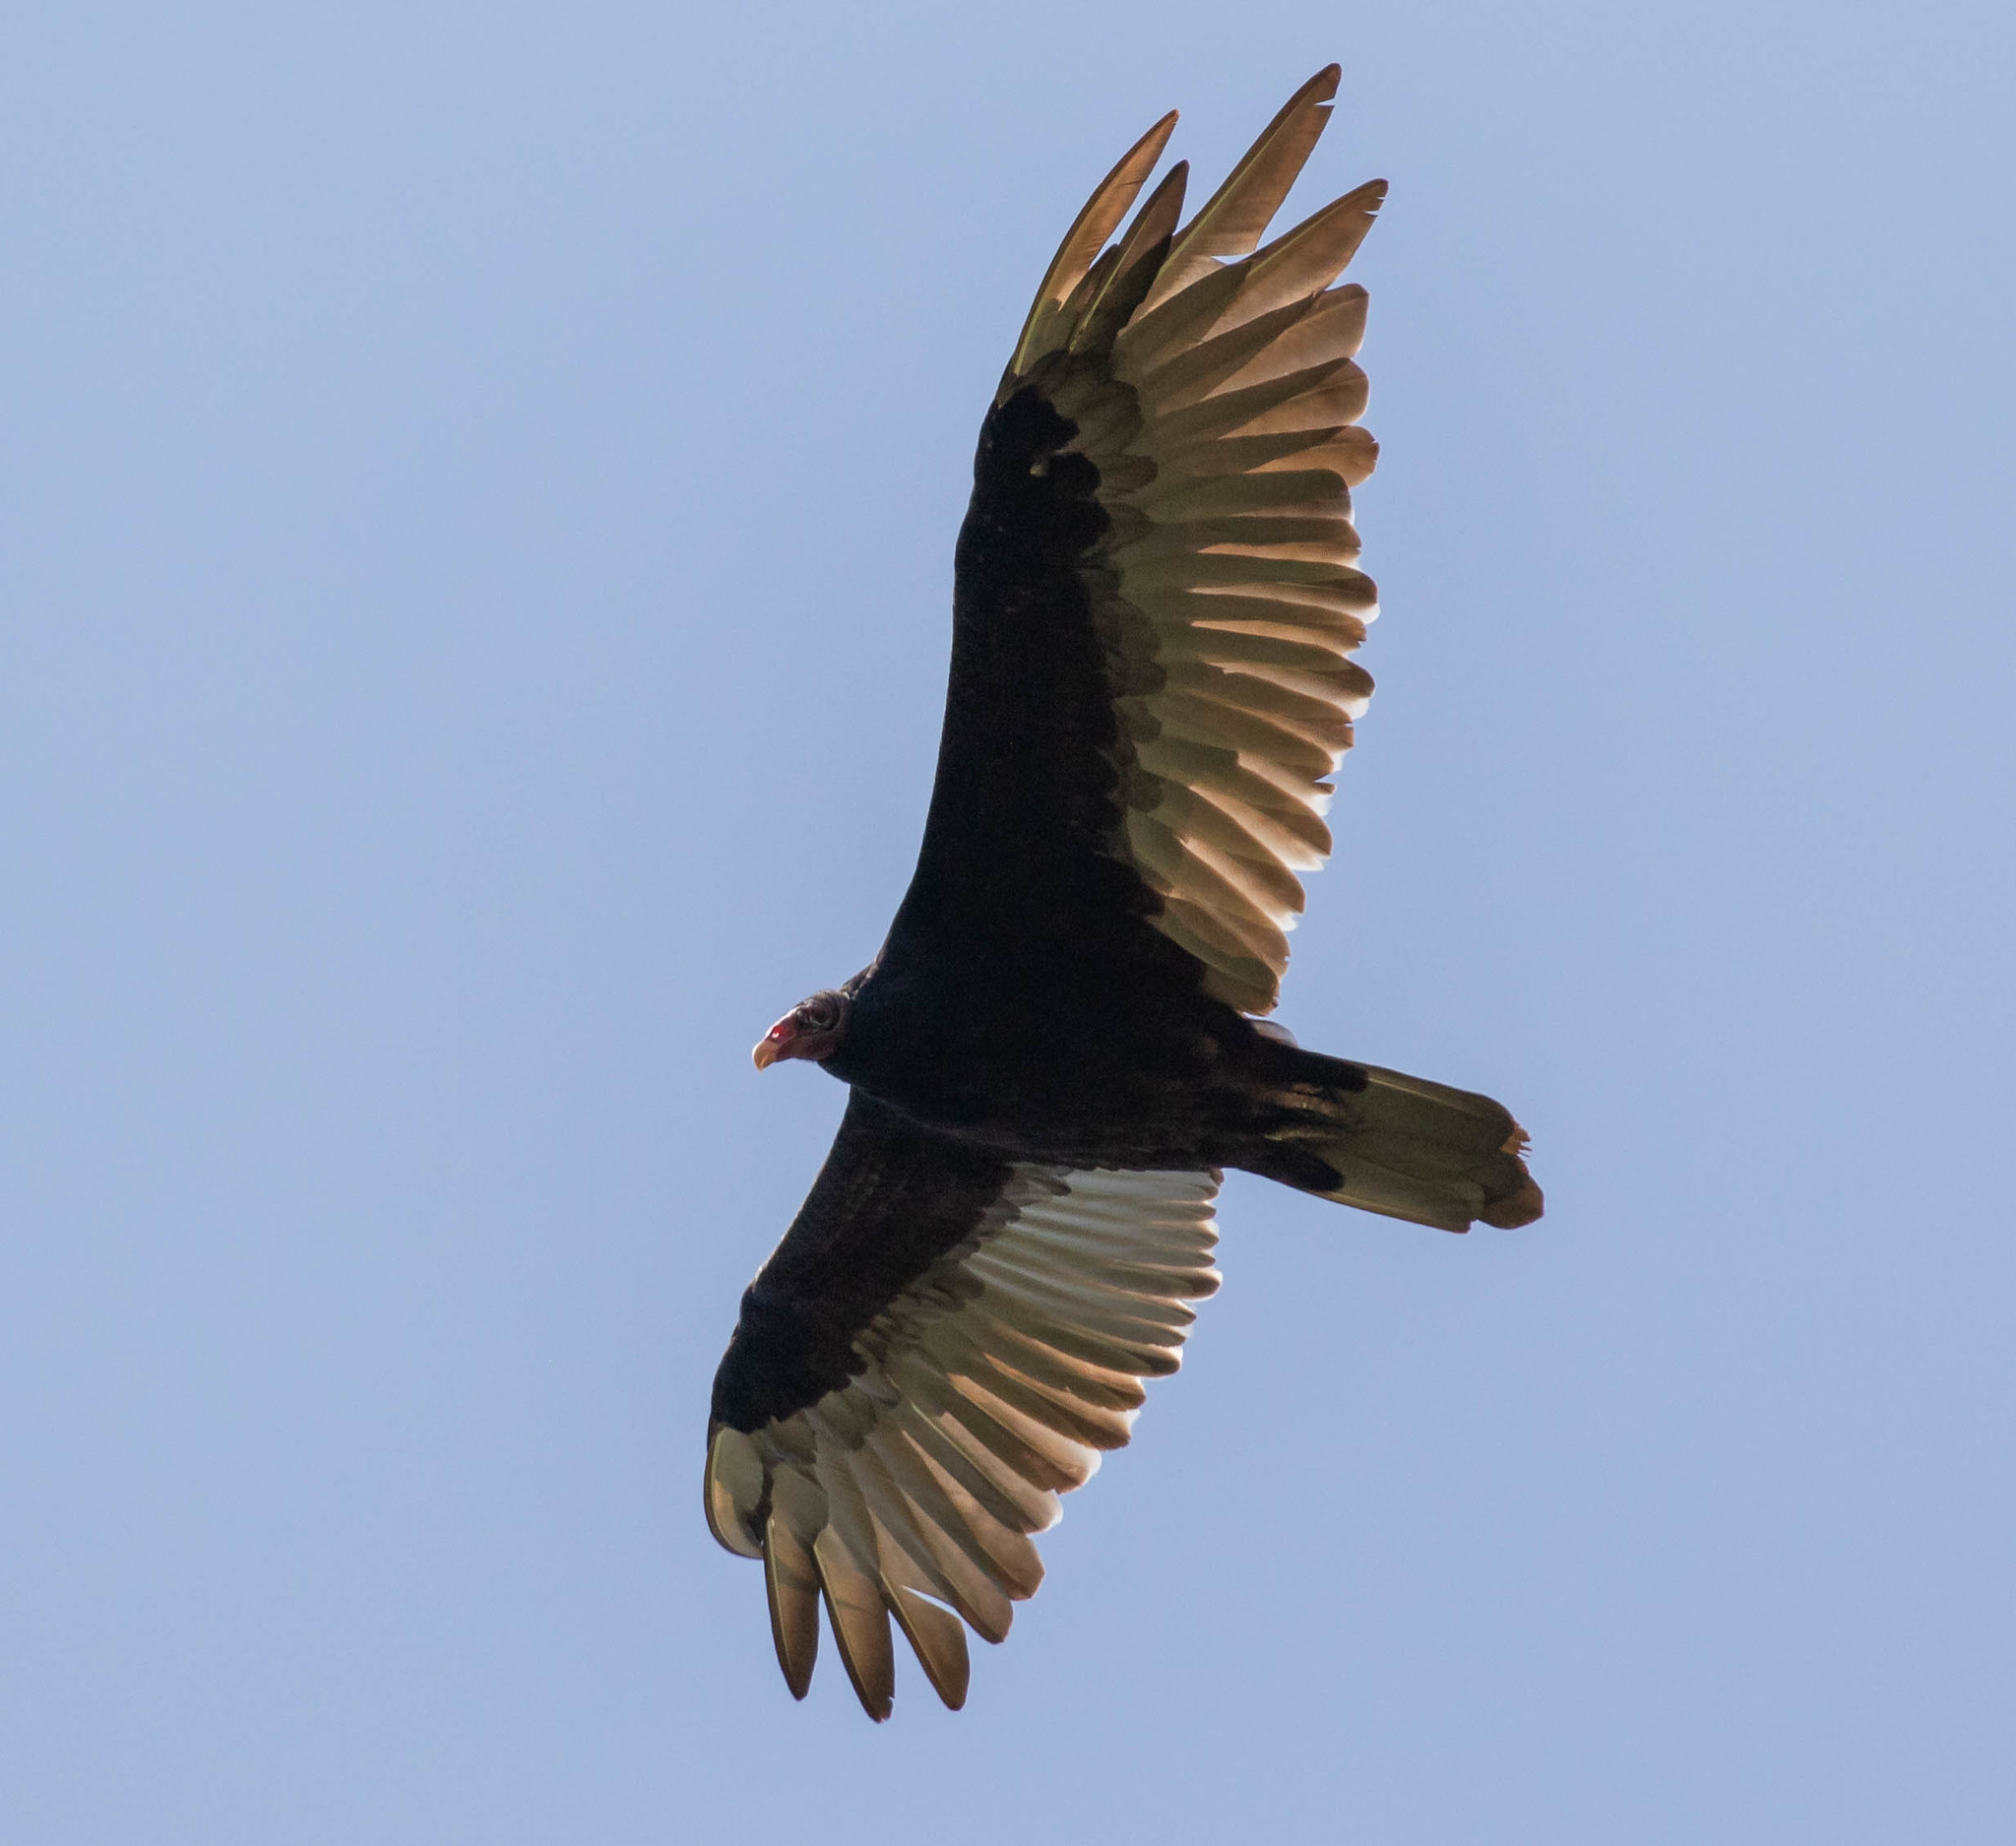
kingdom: Animalia
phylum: Chordata
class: Aves
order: Accipitriformes
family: Cathartidae
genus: Cathartes
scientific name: Cathartes aura
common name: Turkey vulture
